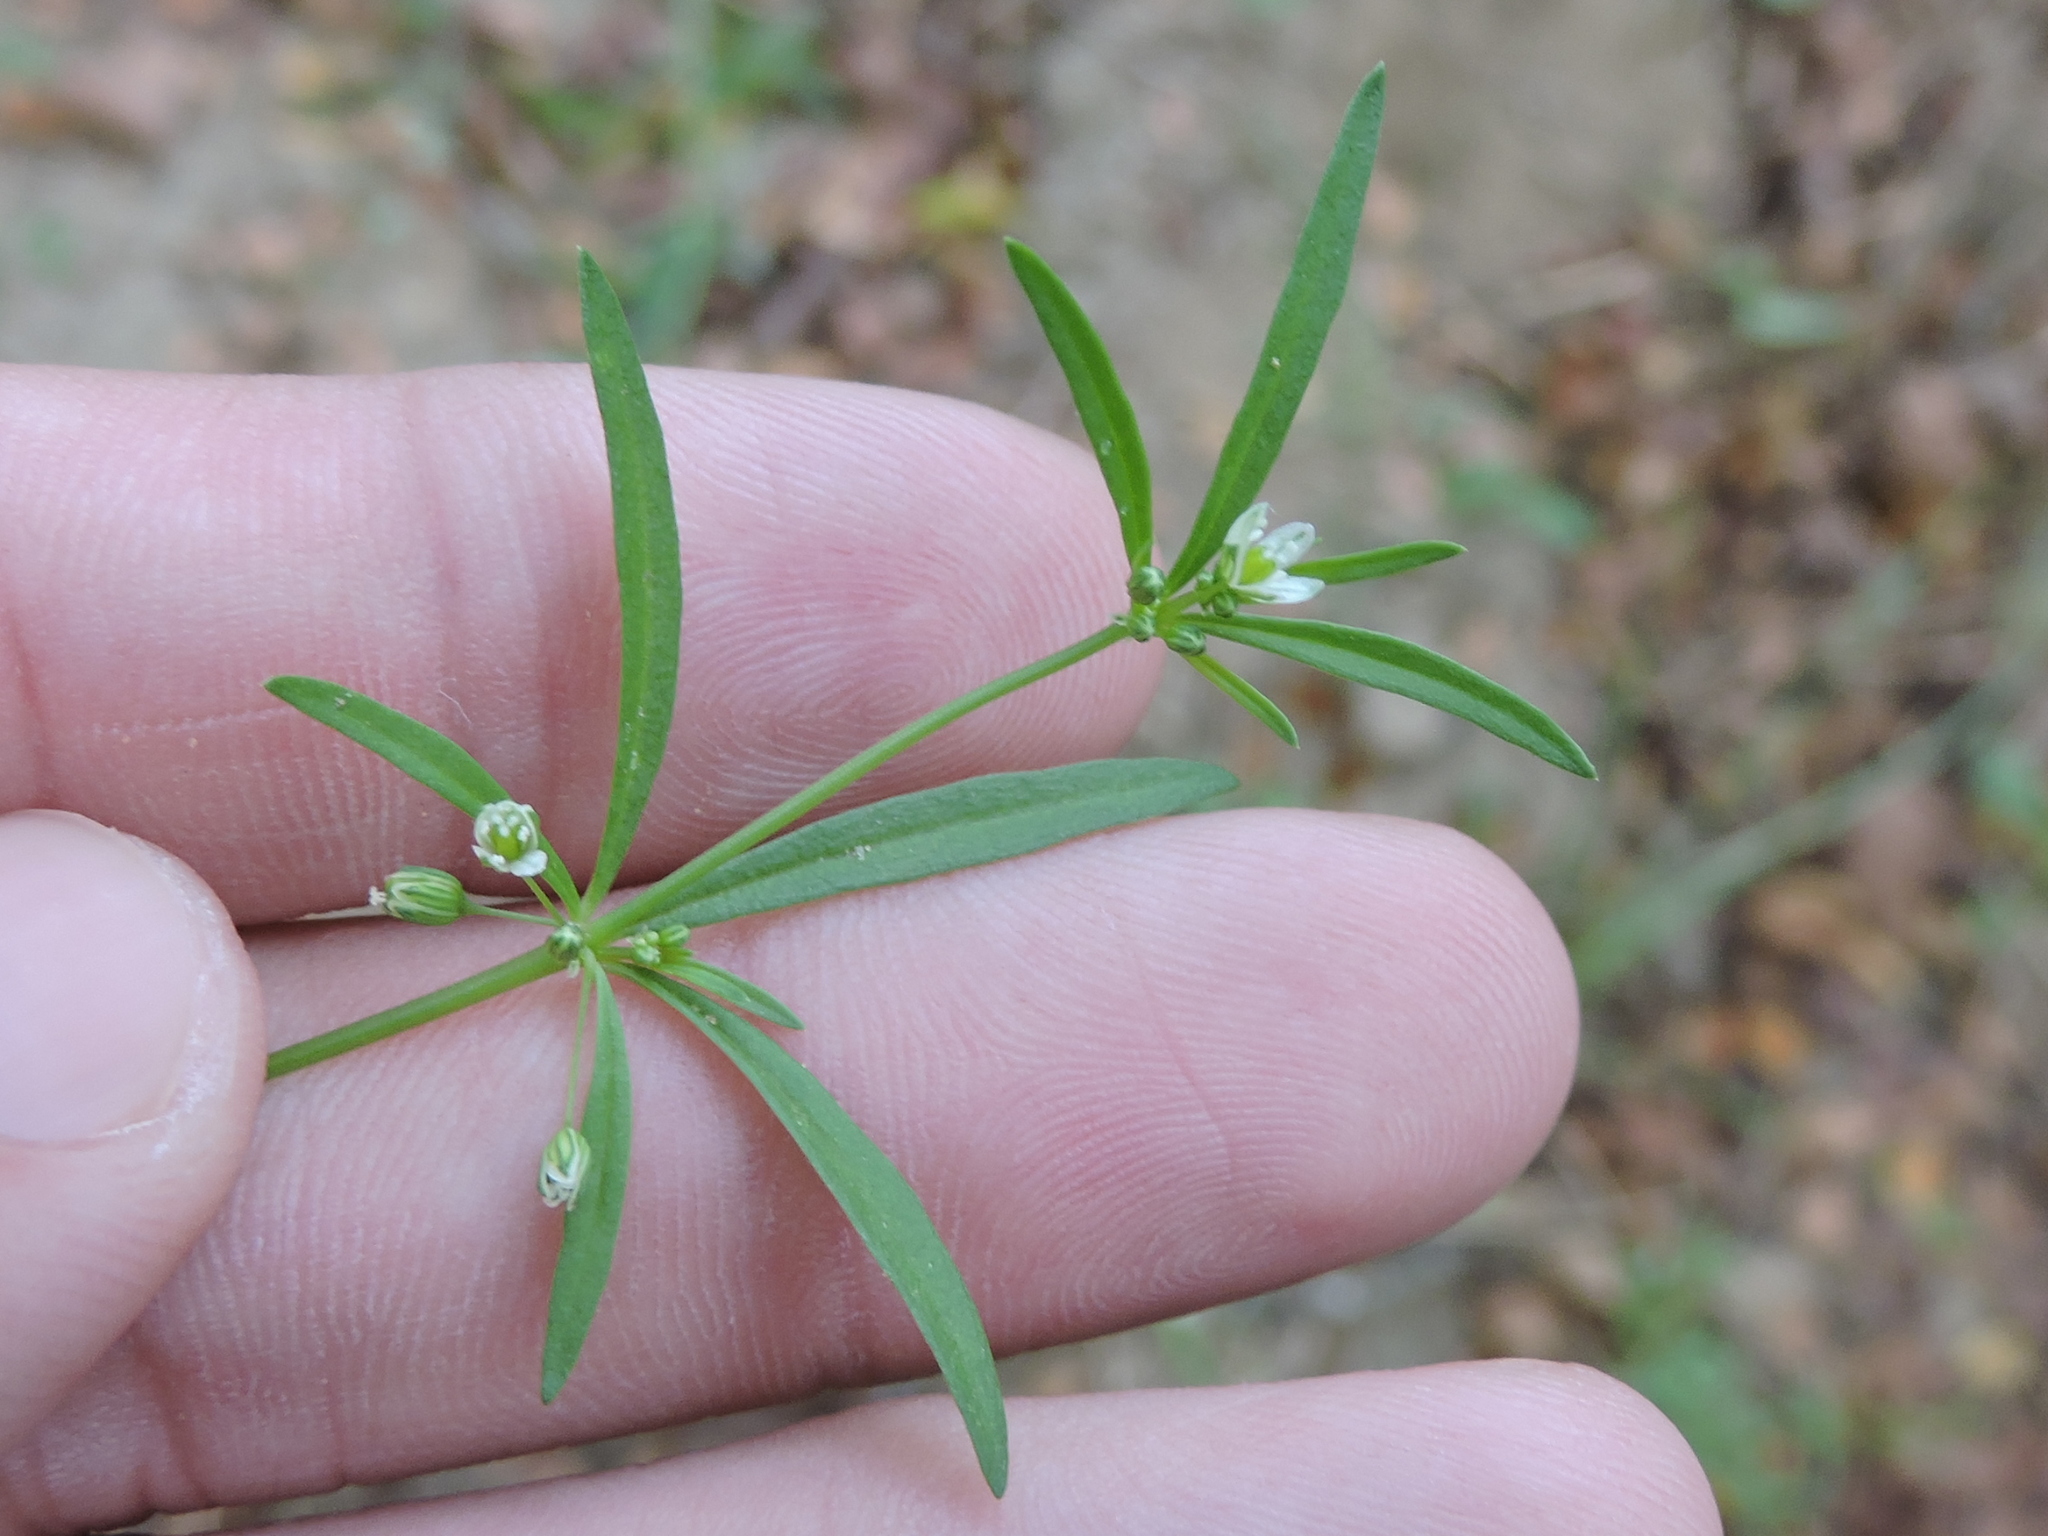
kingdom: Plantae
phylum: Tracheophyta
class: Magnoliopsida
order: Caryophyllales
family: Molluginaceae
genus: Mollugo
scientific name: Mollugo verticillata
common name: Green carpetweed
